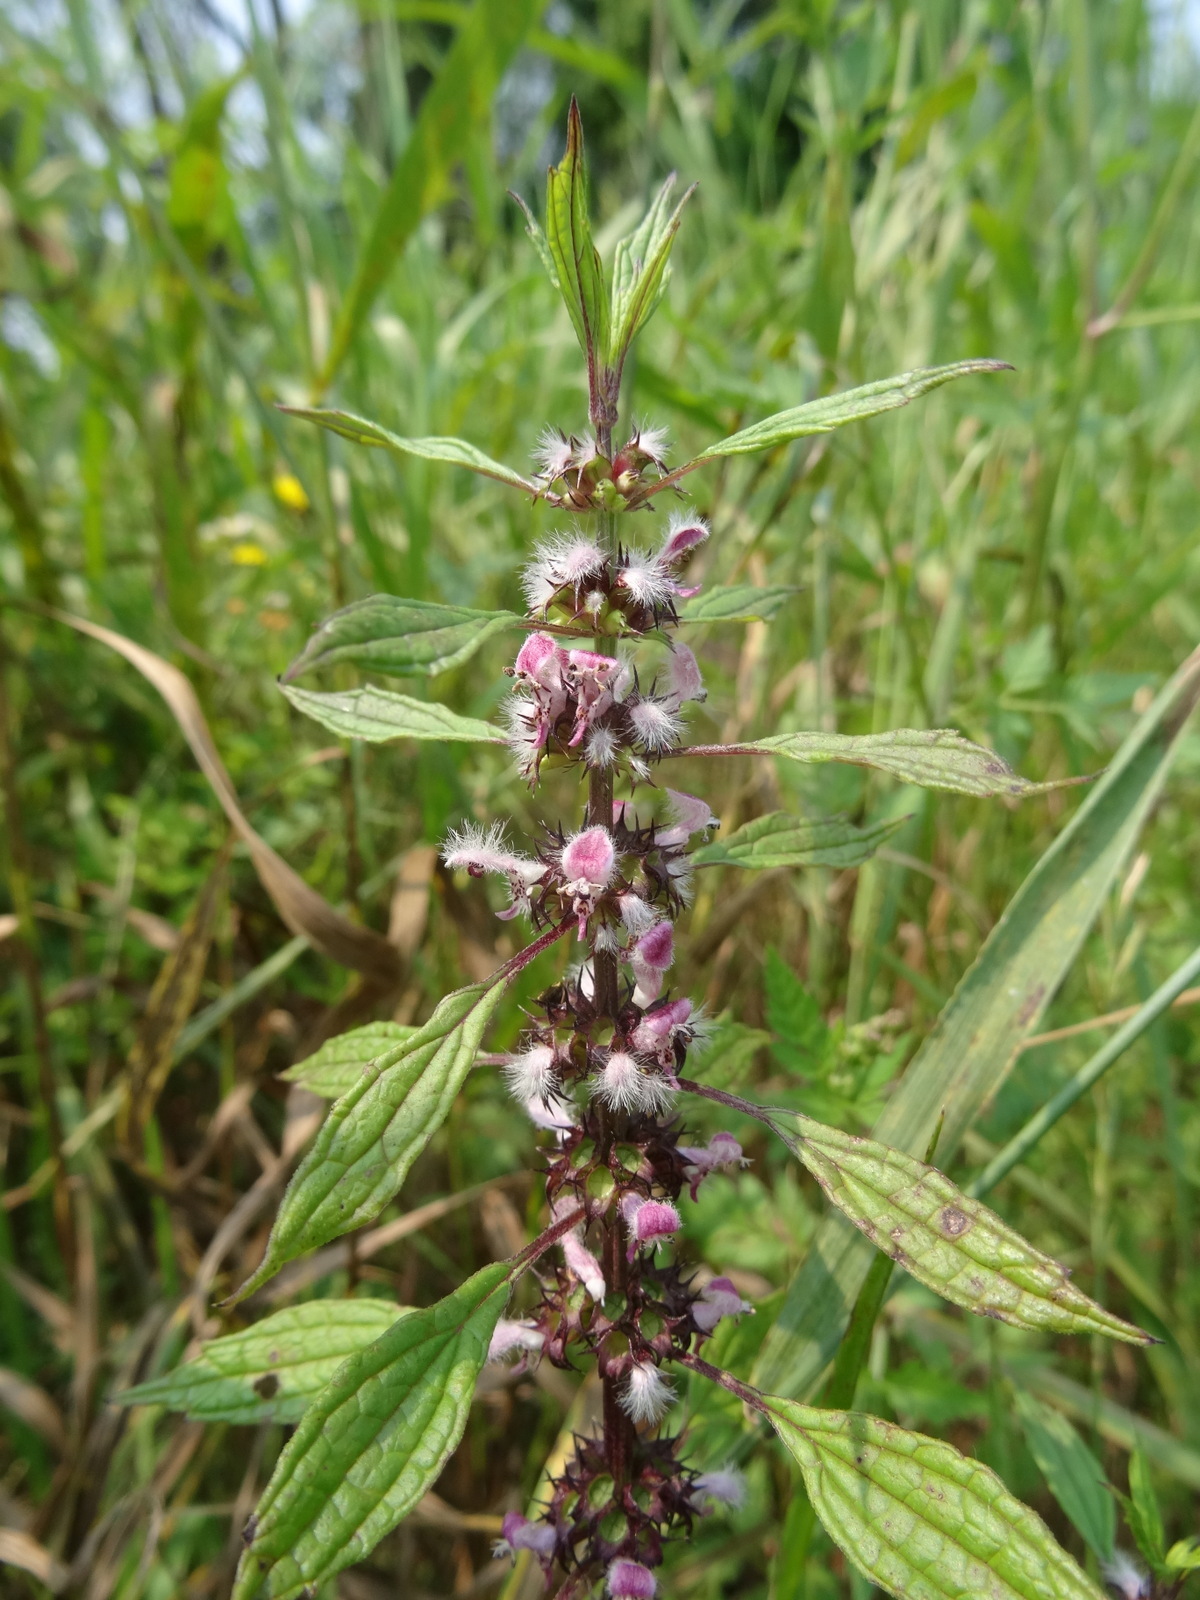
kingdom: Plantae
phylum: Tracheophyta
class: Magnoliopsida
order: Lamiales
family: Lamiaceae
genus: Leonurus
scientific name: Leonurus cardiaca
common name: Motherwort
